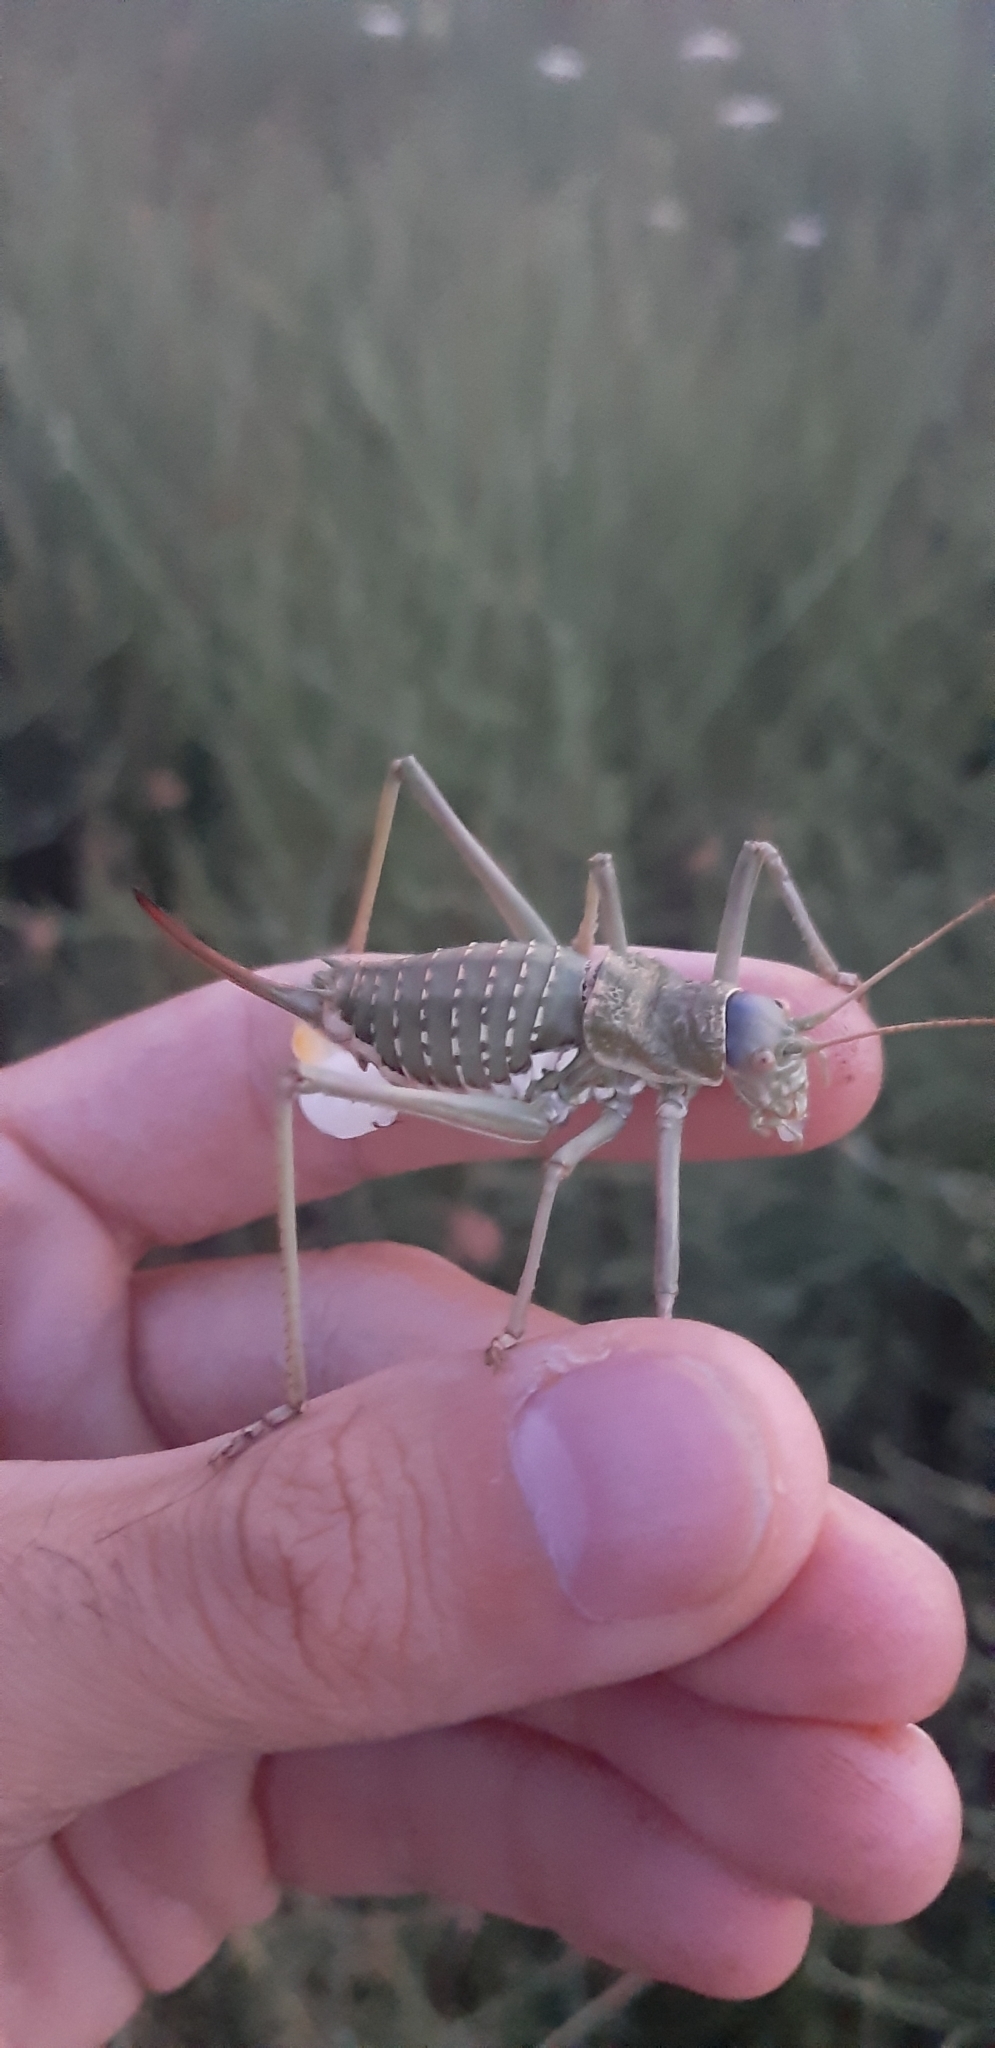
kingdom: Animalia
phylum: Arthropoda
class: Insecta
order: Orthoptera
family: Tettigoniidae
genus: Uromenus
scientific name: Uromenus elegans
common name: Elegant saddle bush-cricket
